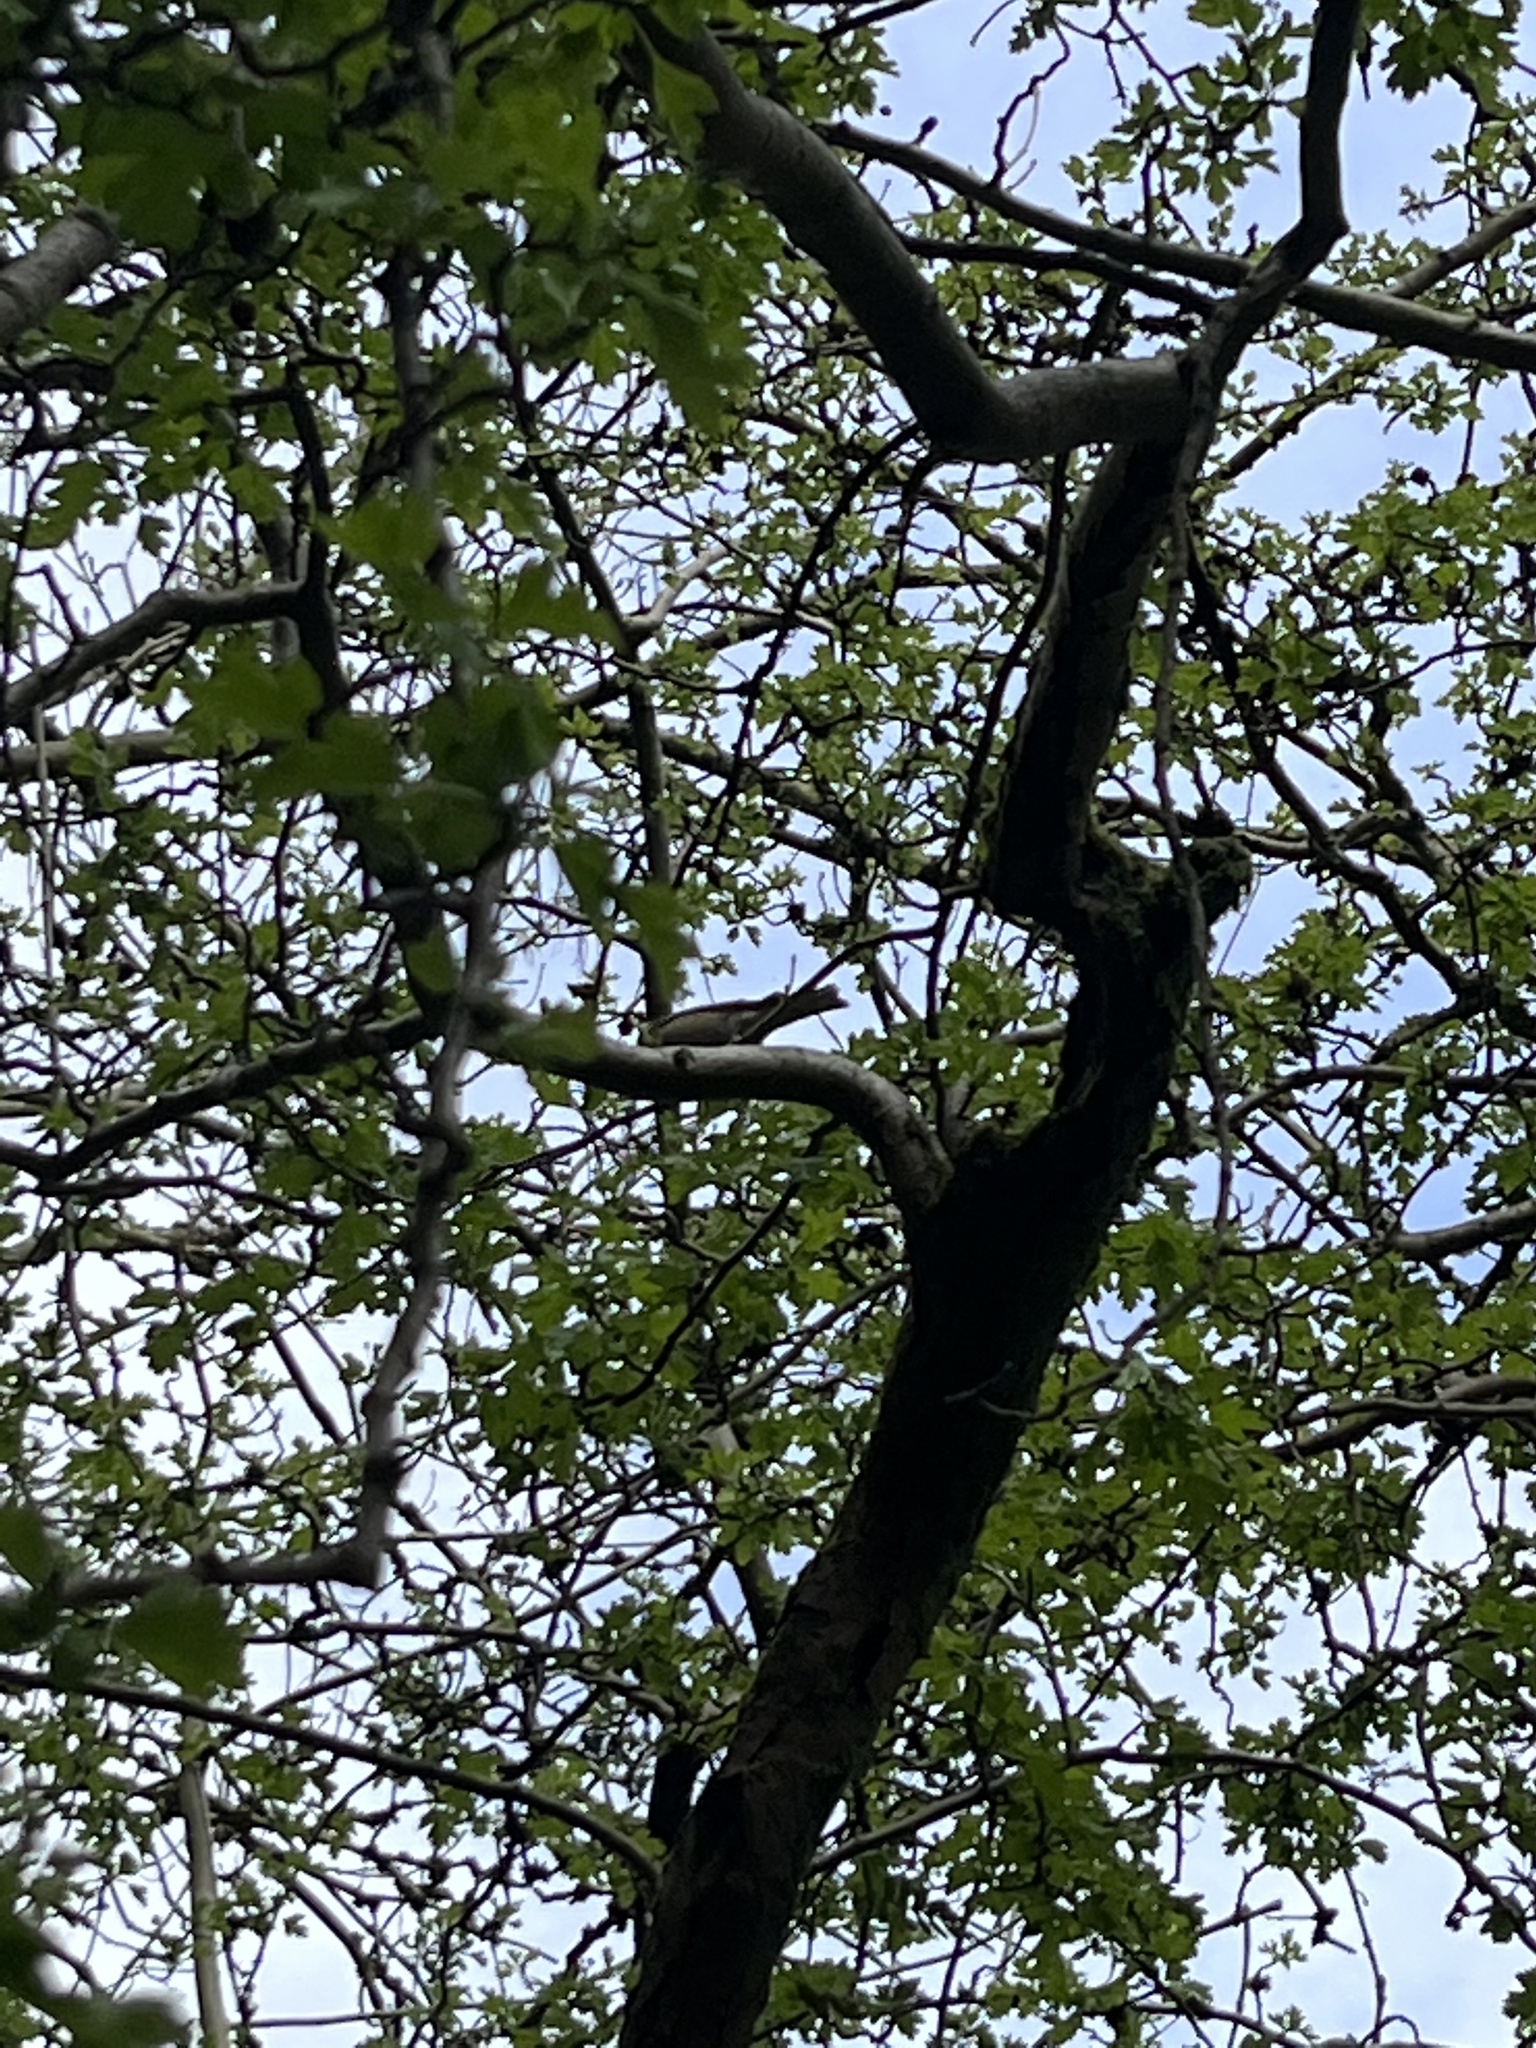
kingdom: Animalia
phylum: Chordata
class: Aves
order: Passeriformes
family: Fringillidae
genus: Fringilla
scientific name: Fringilla coelebs
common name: Common chaffinch
